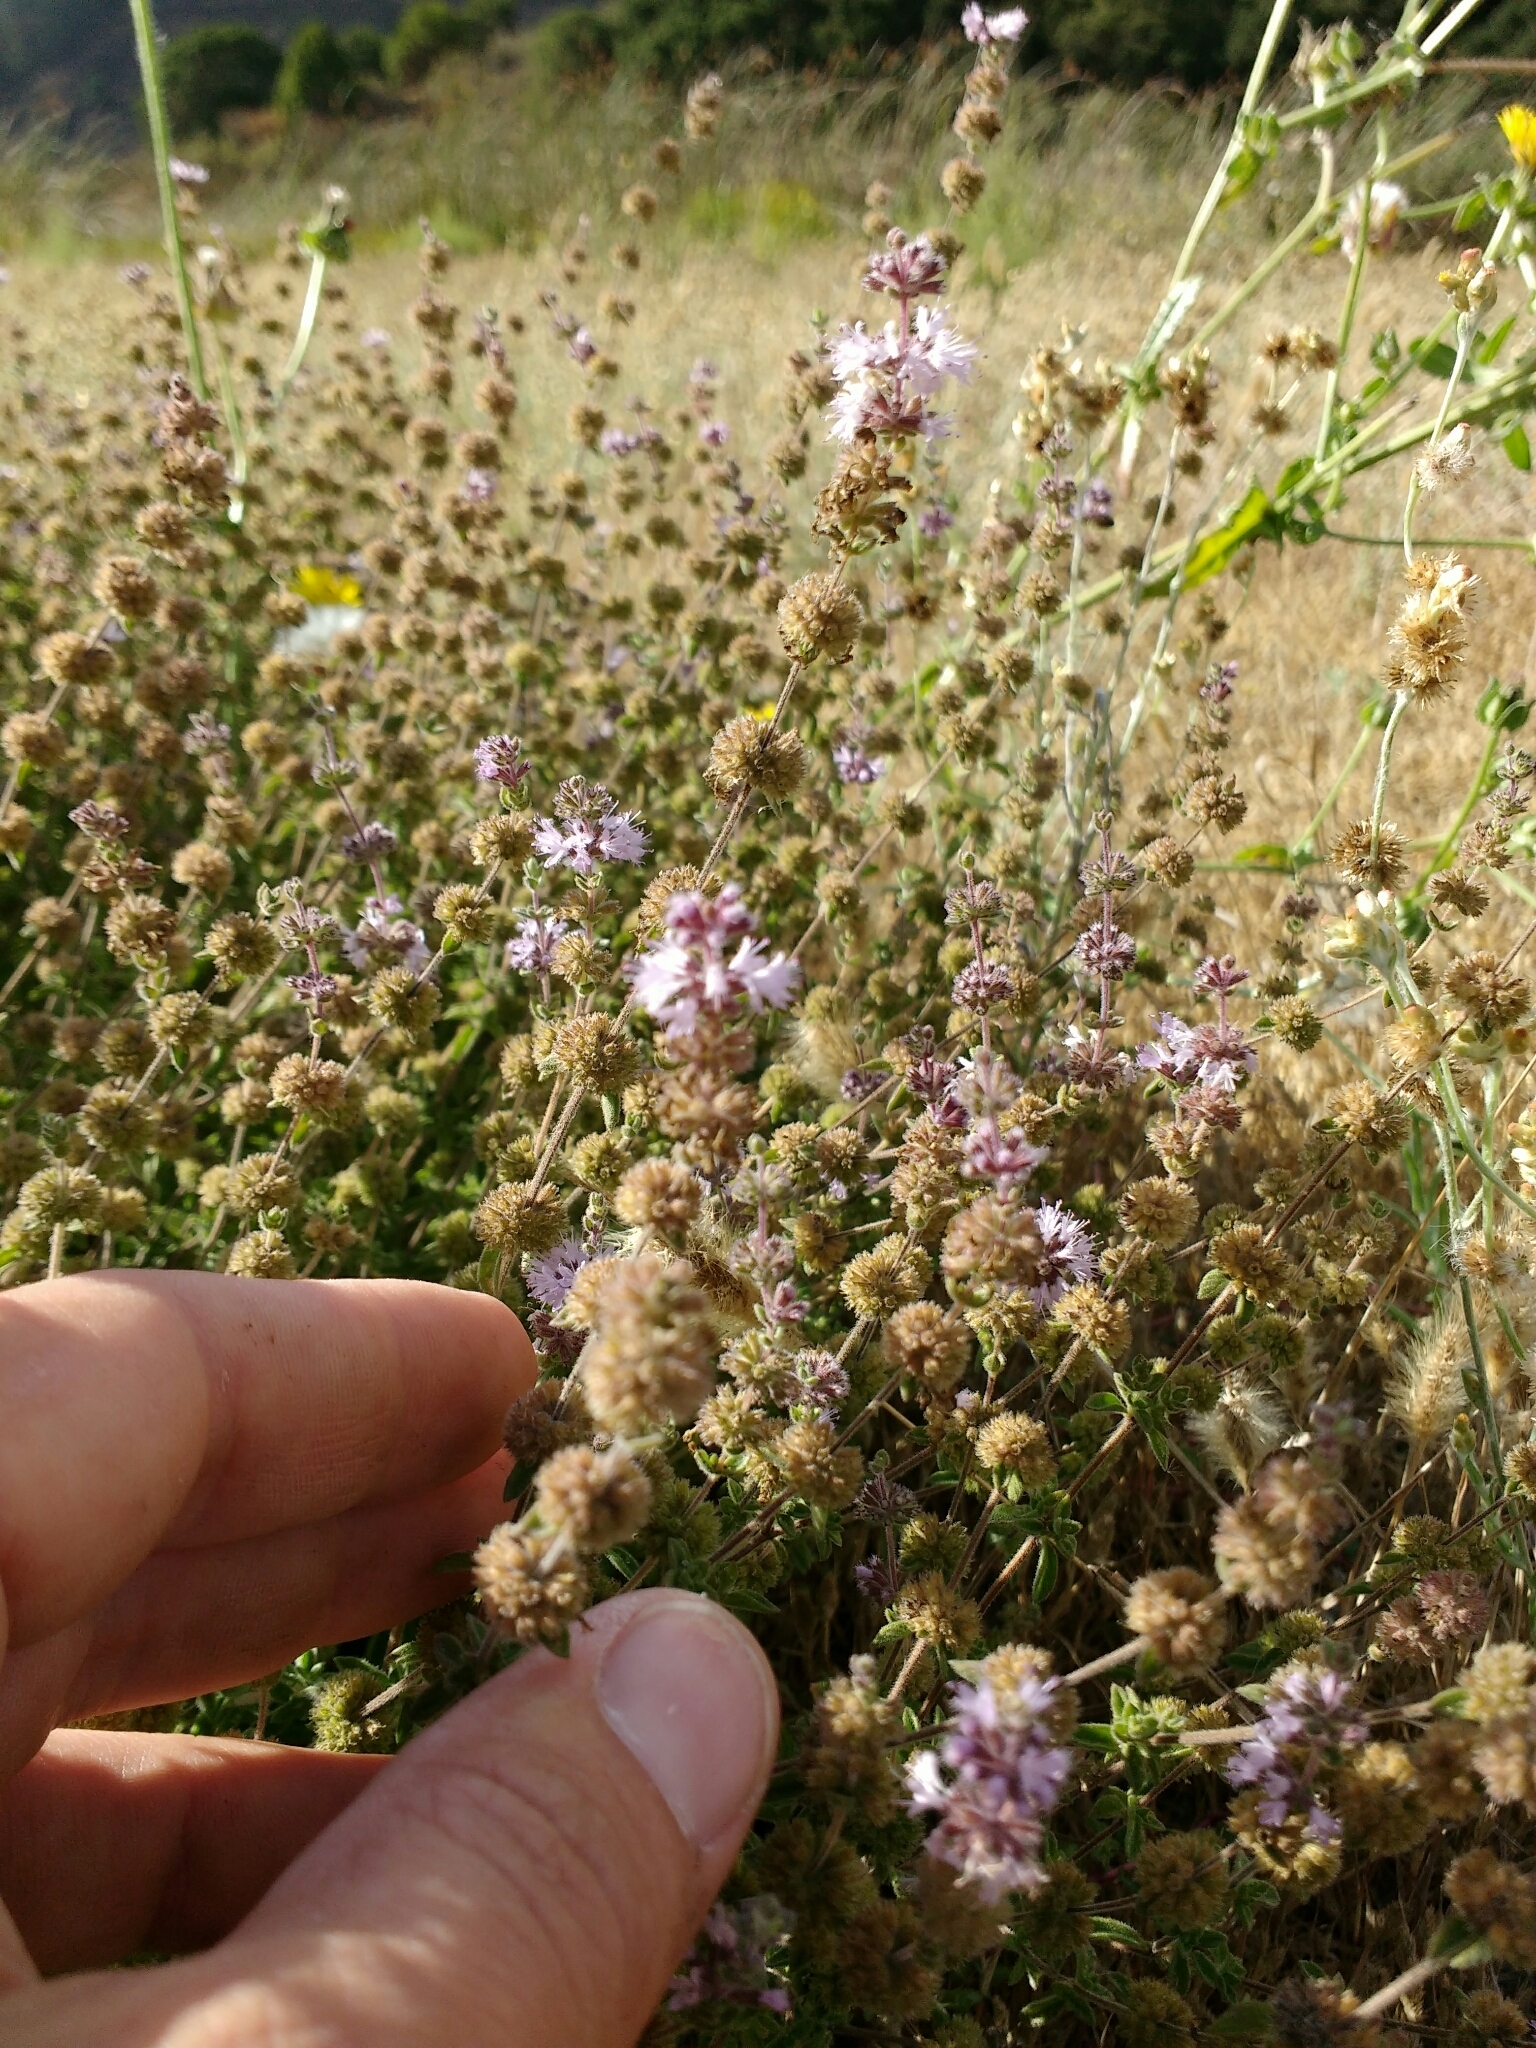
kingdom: Plantae
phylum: Tracheophyta
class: Magnoliopsida
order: Lamiales
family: Lamiaceae
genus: Mentha
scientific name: Mentha pulegium
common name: Pennyroyal
